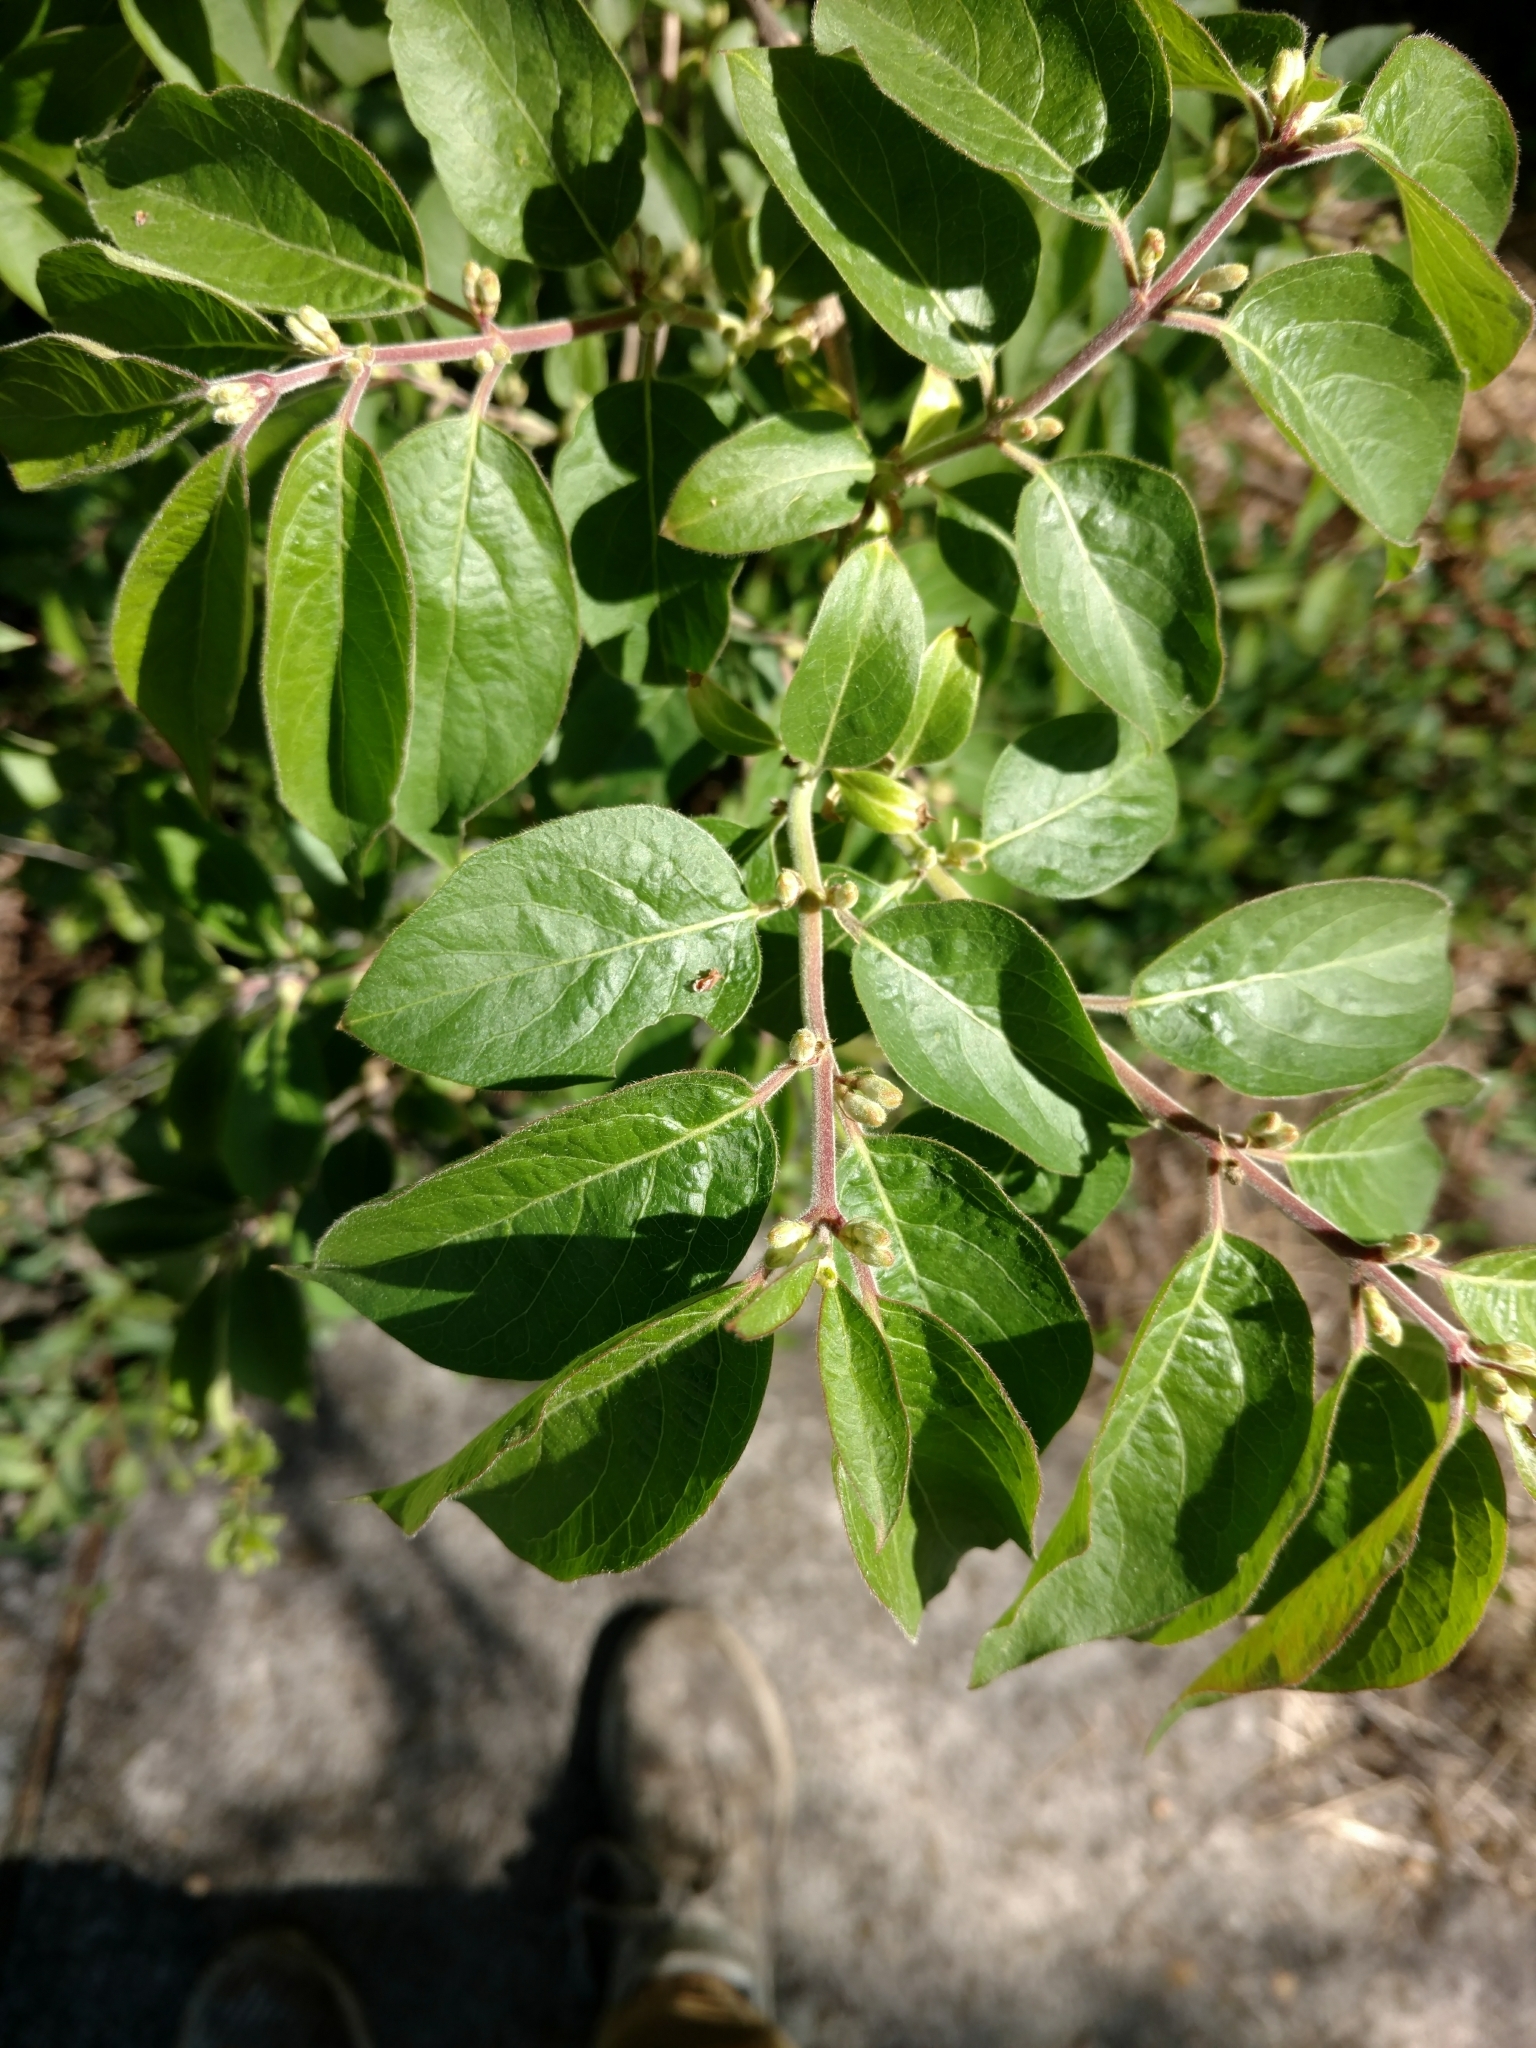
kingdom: Plantae
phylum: Tracheophyta
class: Magnoliopsida
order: Dipsacales
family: Caprifoliaceae
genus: Lonicera
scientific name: Lonicera maackii
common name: Amur honeysuckle
